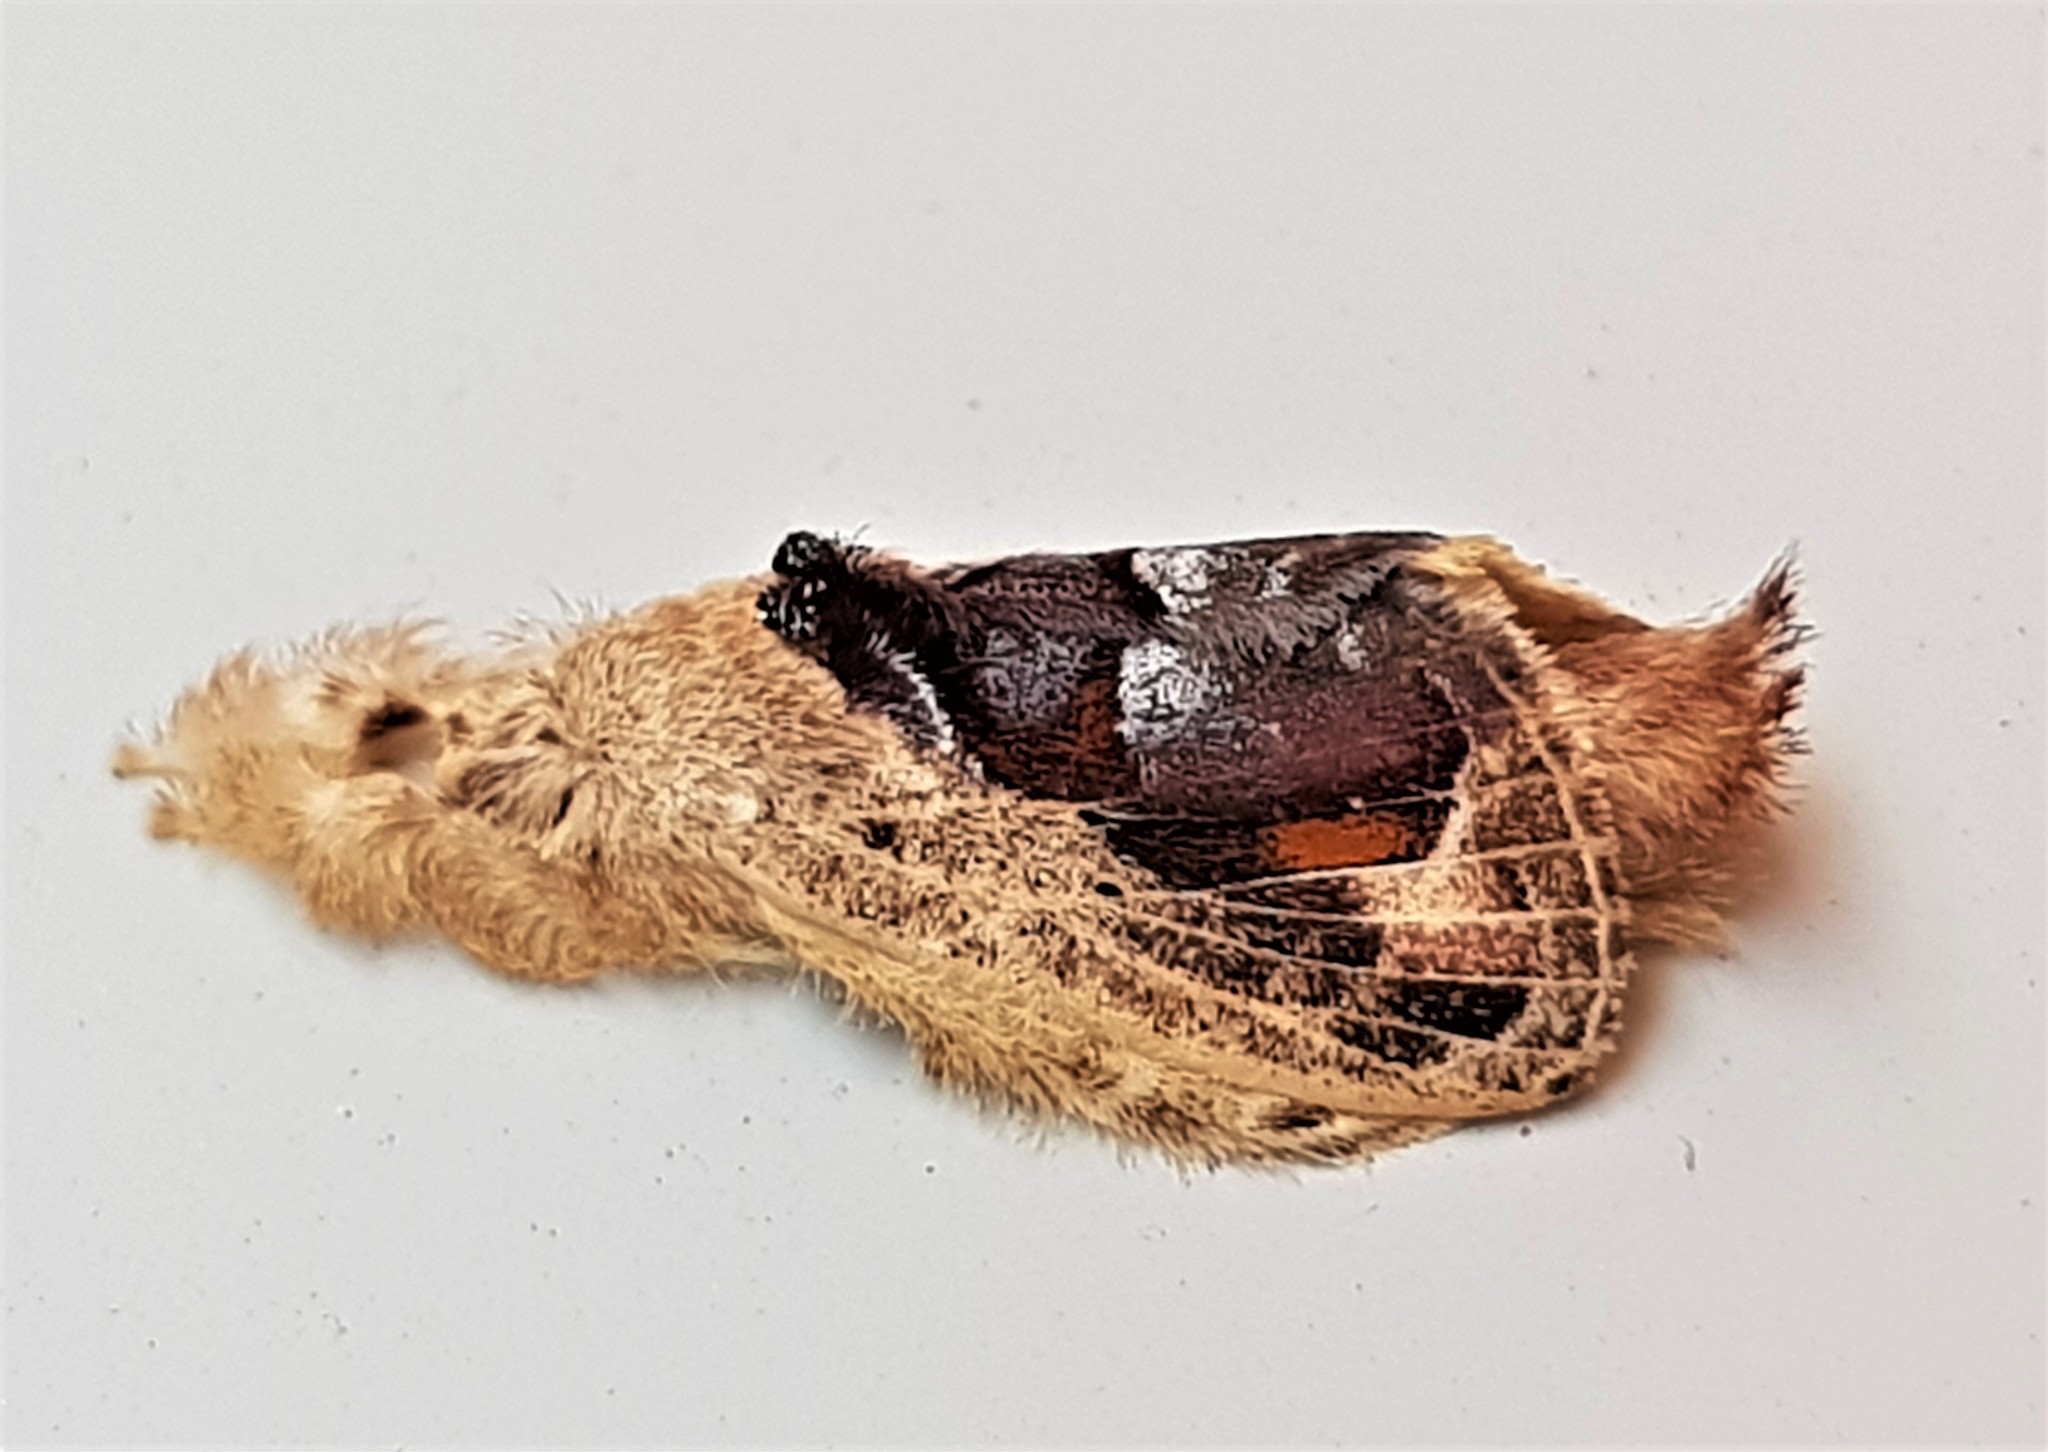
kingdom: Animalia
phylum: Arthropoda
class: Insecta
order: Lepidoptera
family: Lasiocampidae
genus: Euglyphis
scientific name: Euglyphis amisena
